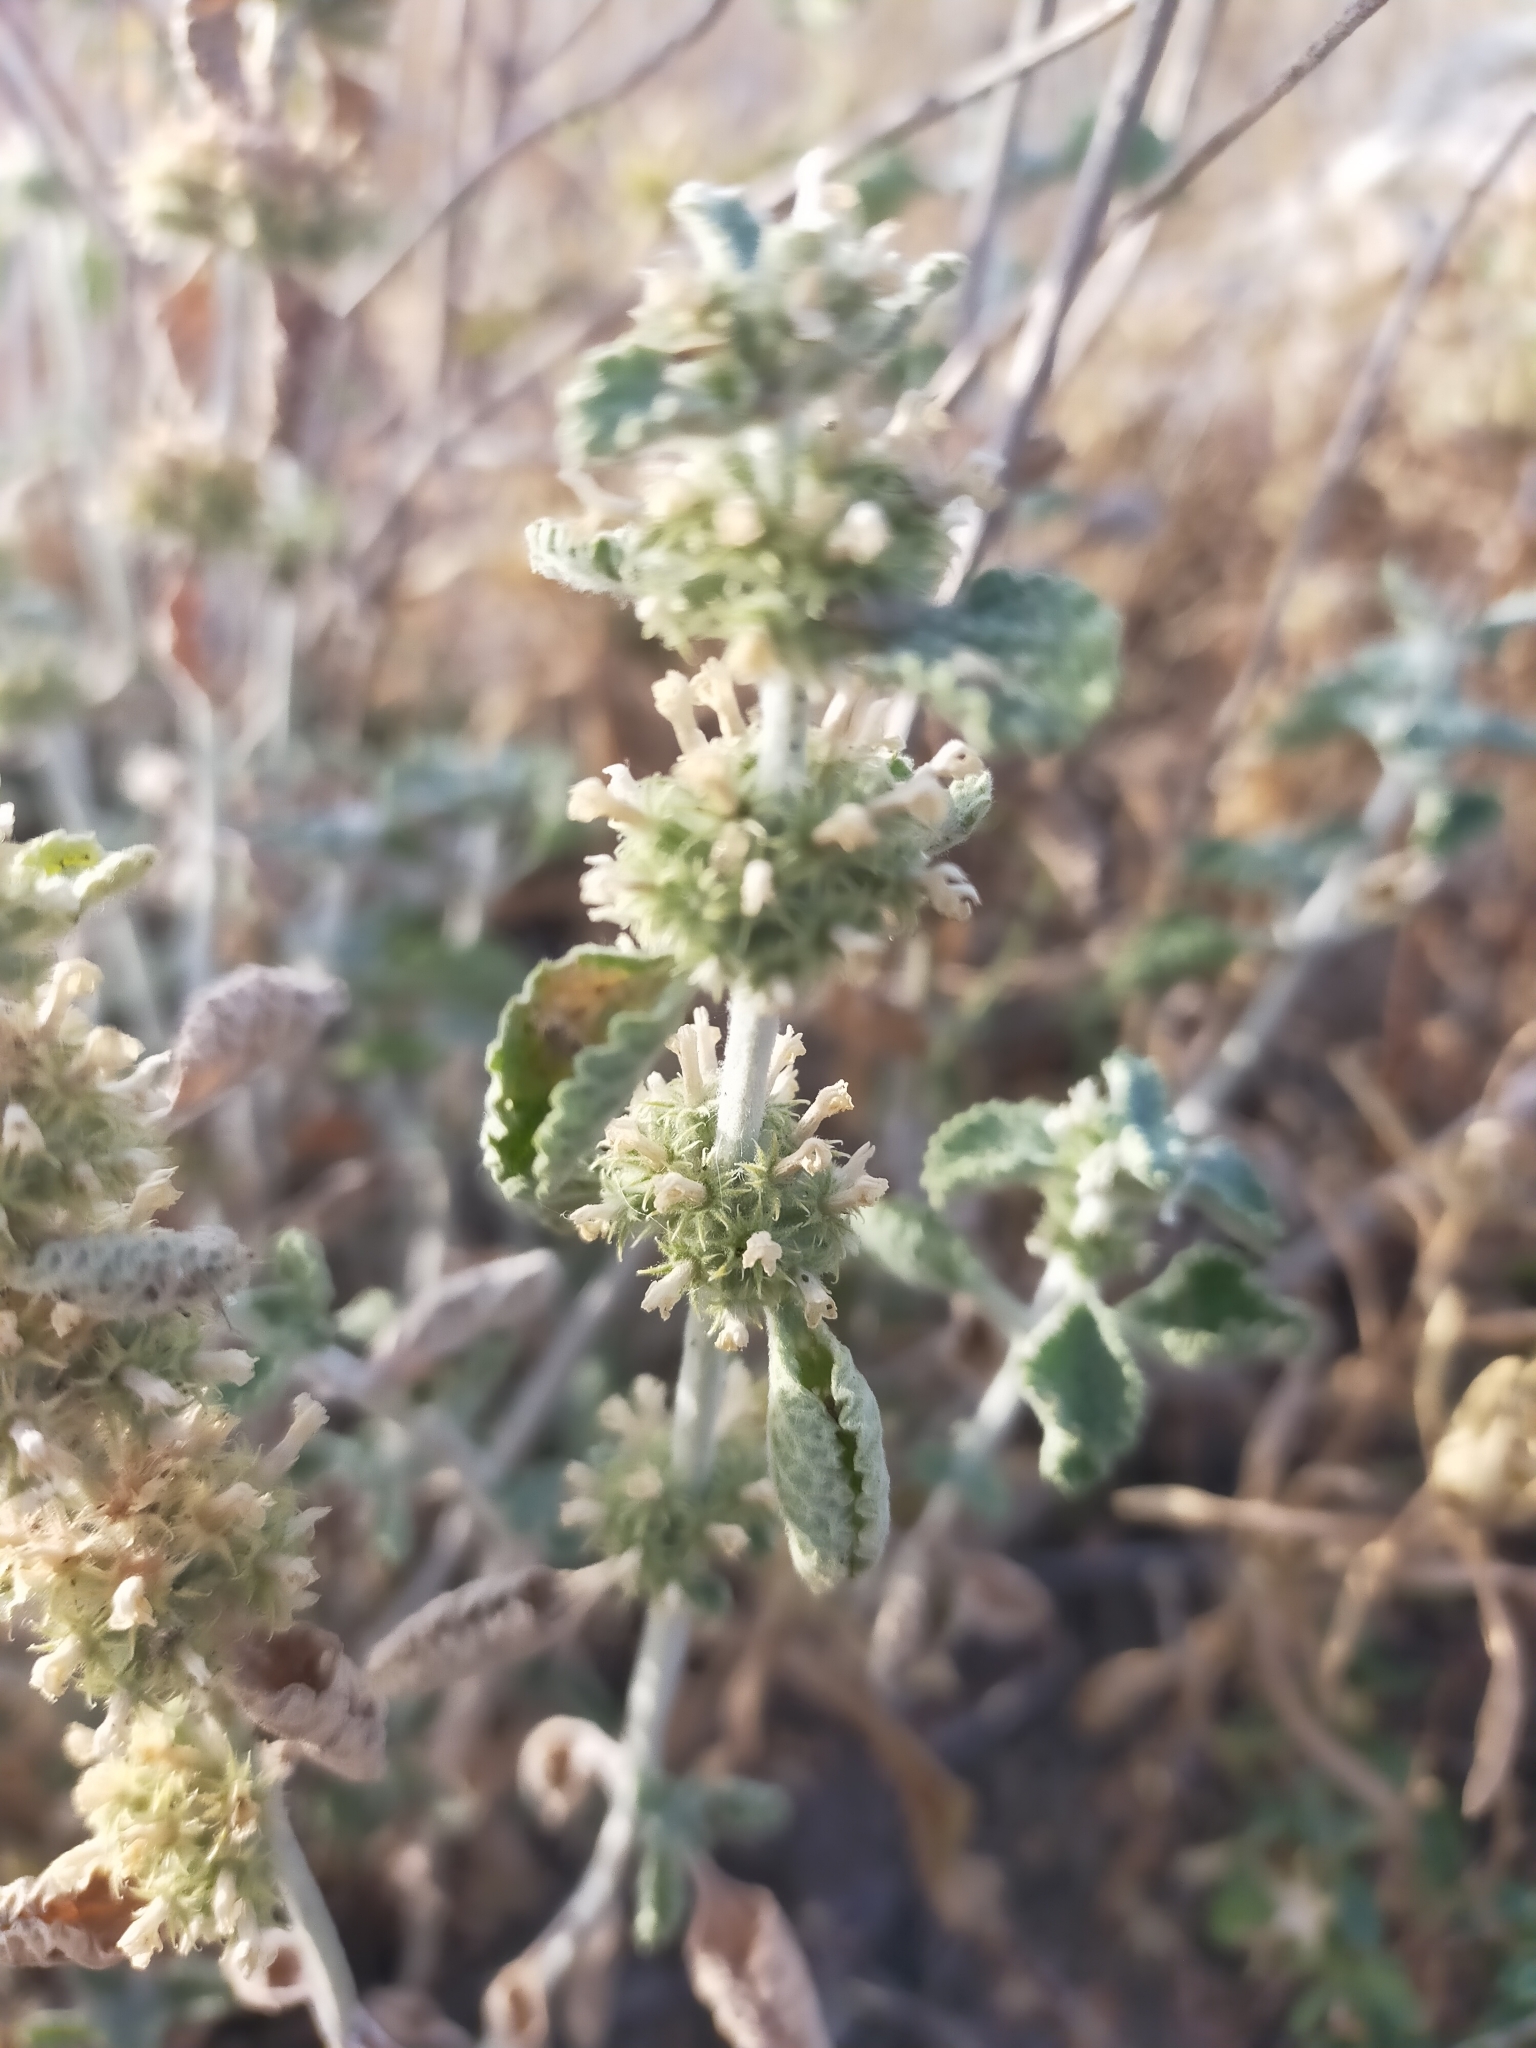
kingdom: Plantae
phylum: Tracheophyta
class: Magnoliopsida
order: Lamiales
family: Lamiaceae
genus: Marrubium
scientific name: Marrubium vulgare
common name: Horehound
